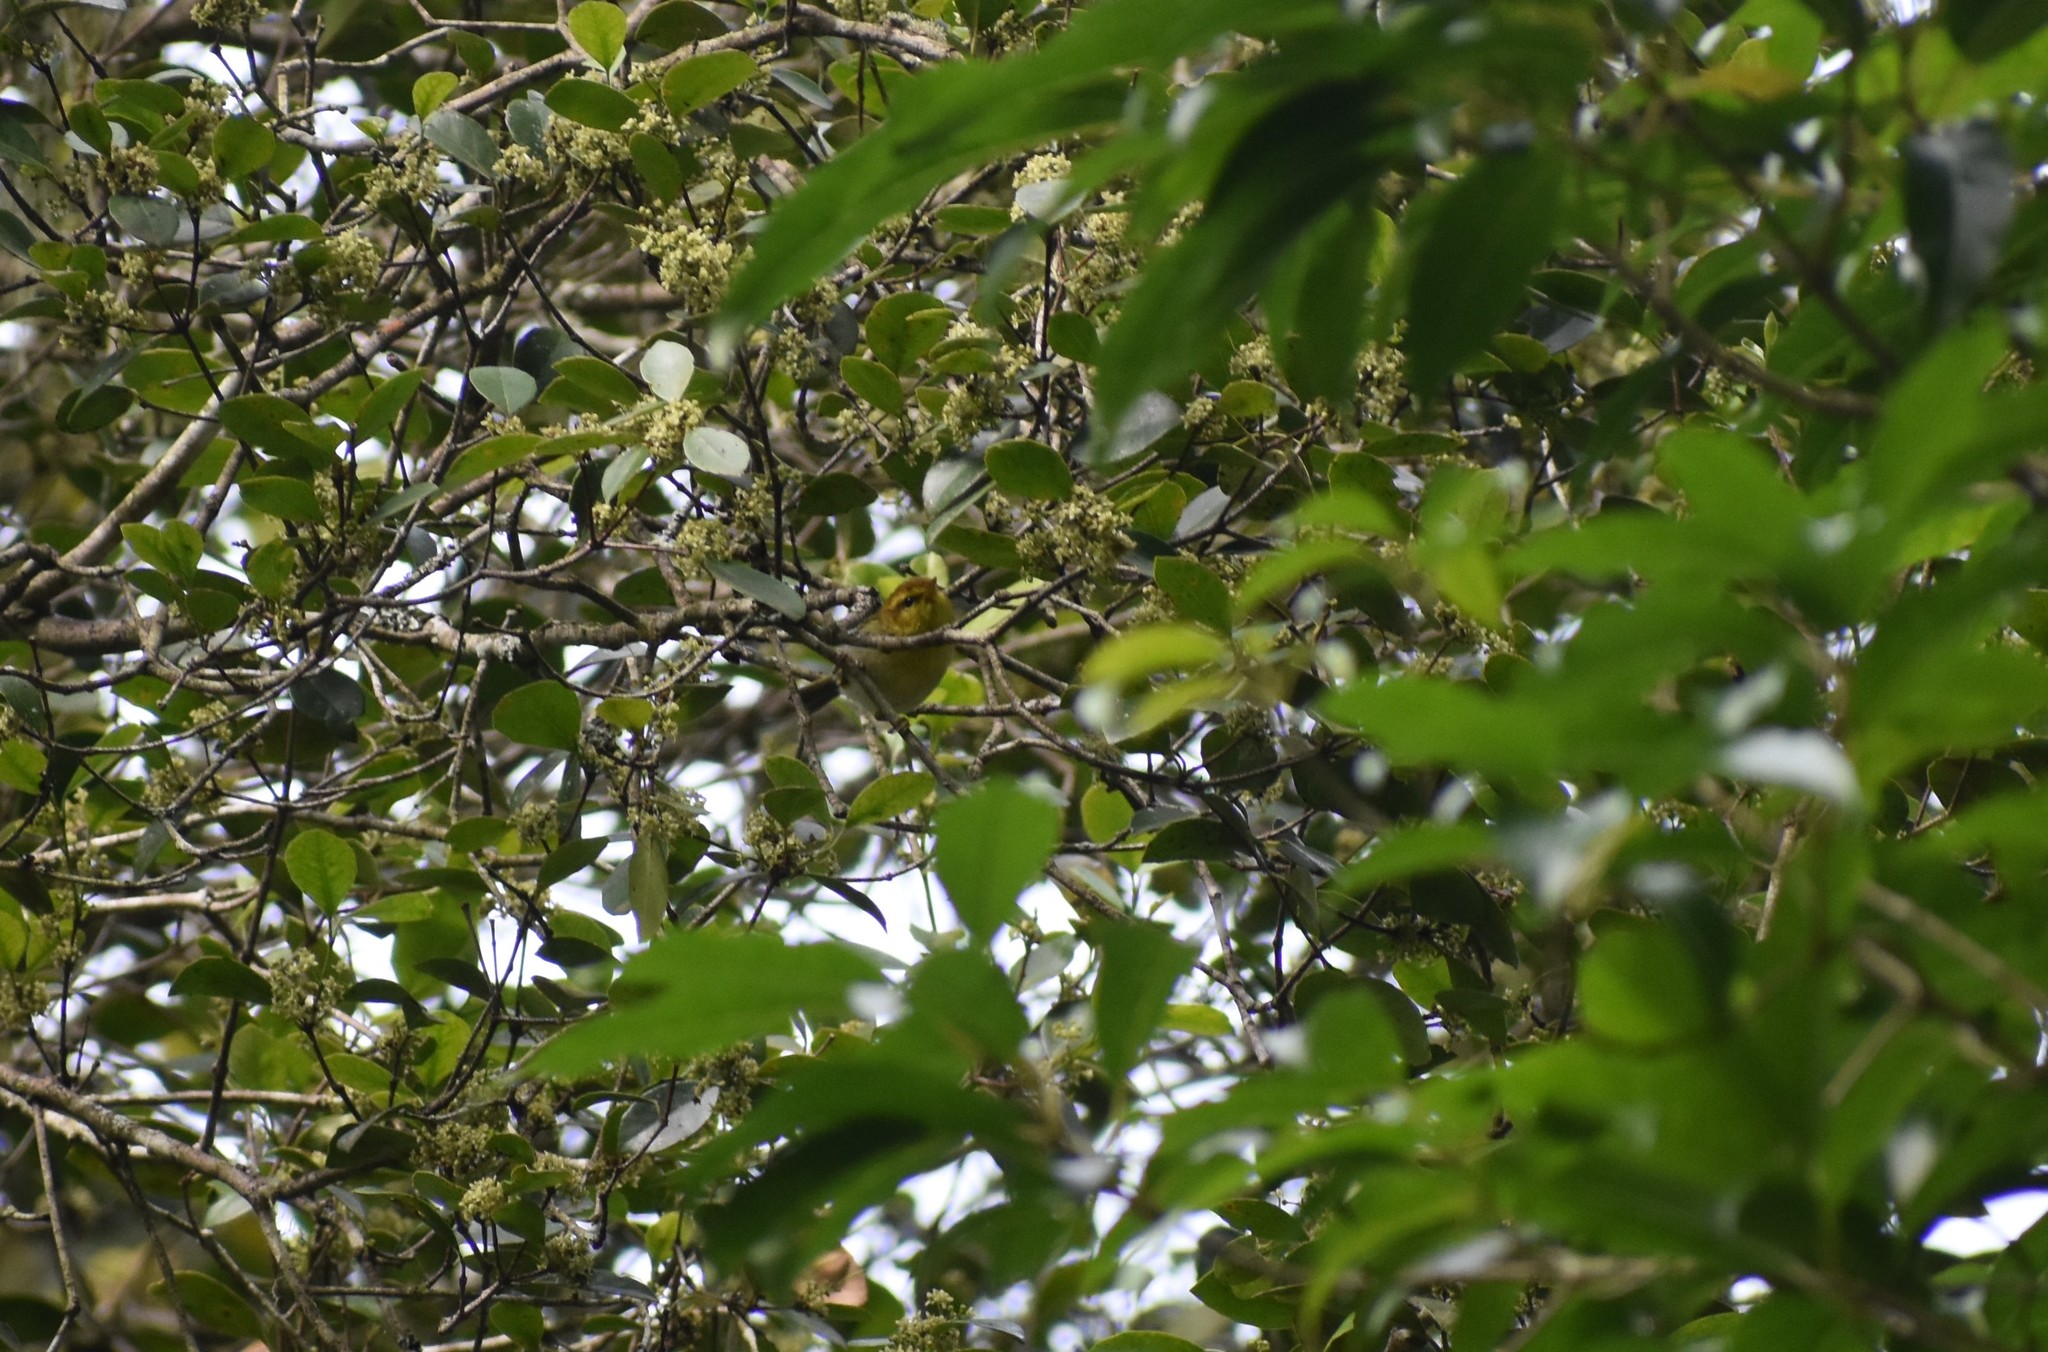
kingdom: Animalia
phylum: Chordata
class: Aves
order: Passeriformes
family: Phylloscopidae
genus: Phylloscopus
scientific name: Phylloscopus ruficapilla
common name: Yellow-throated woodland warbler
